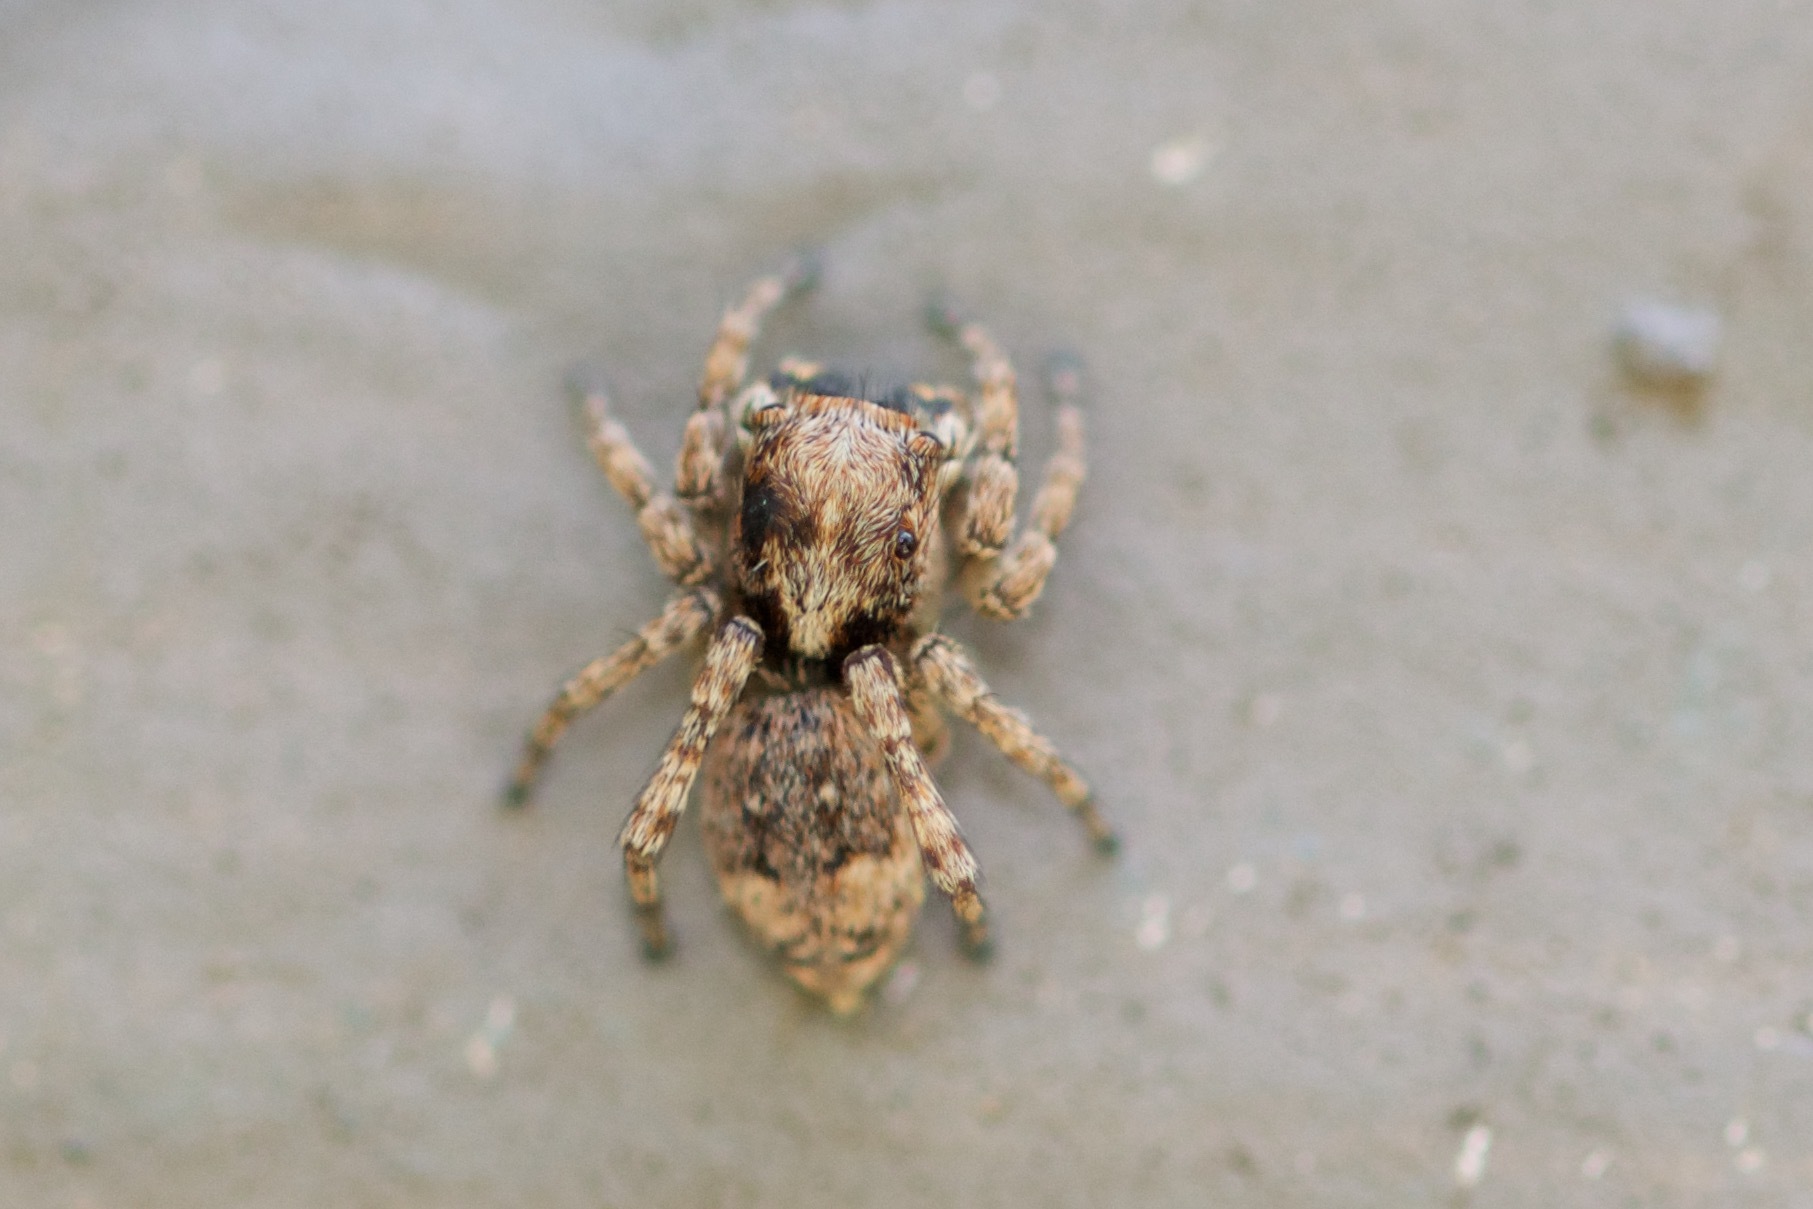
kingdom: Animalia
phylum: Arthropoda
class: Arachnida
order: Araneae
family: Salticidae
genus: Attulus
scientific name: Attulus fasciger
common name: Asiatic wall jumping spider
